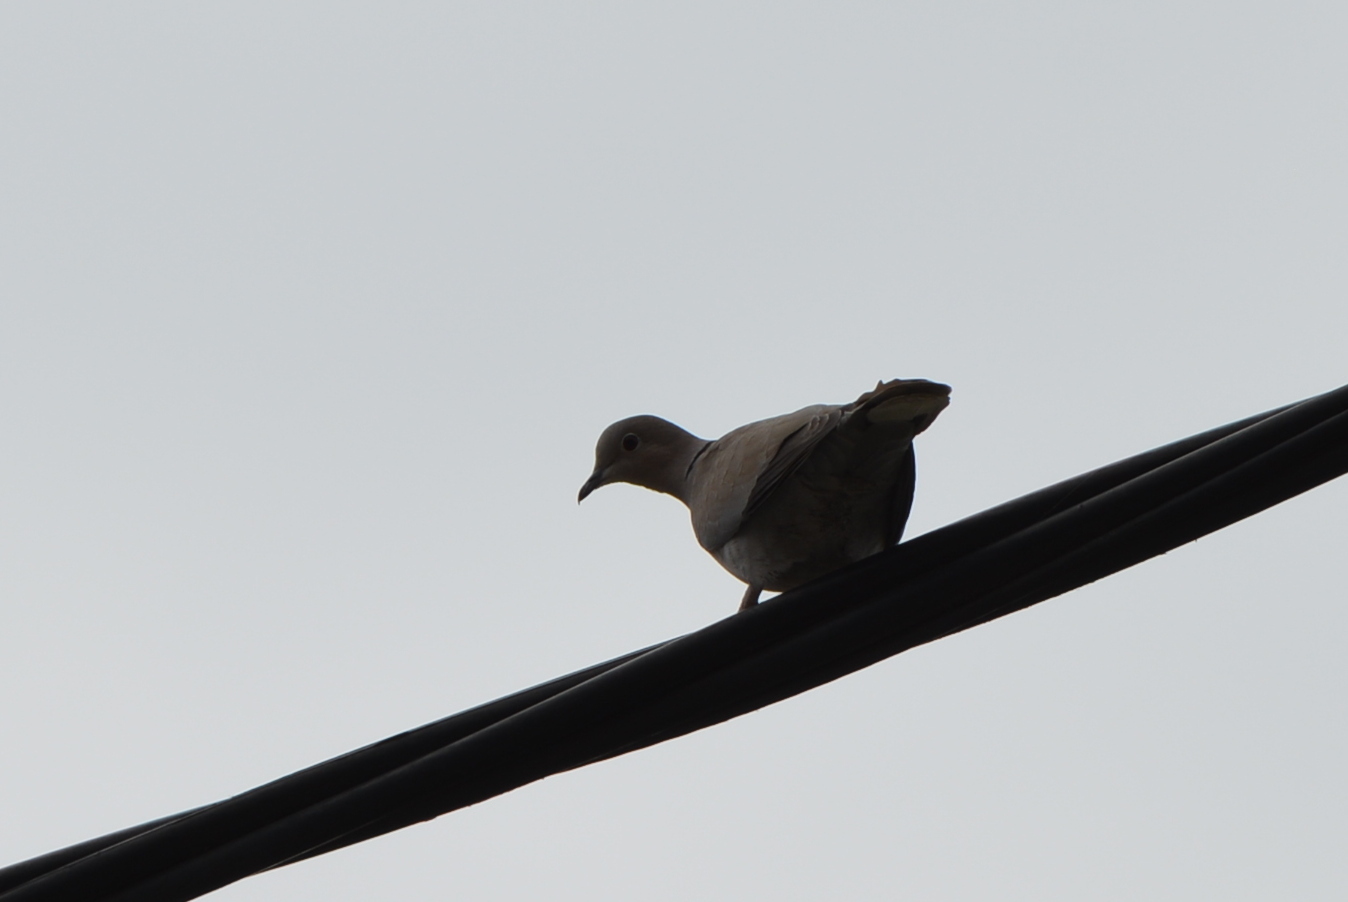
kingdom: Animalia
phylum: Chordata
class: Aves
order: Columbiformes
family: Columbidae
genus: Streptopelia
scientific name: Streptopelia decaocto
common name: Eurasian collared dove
